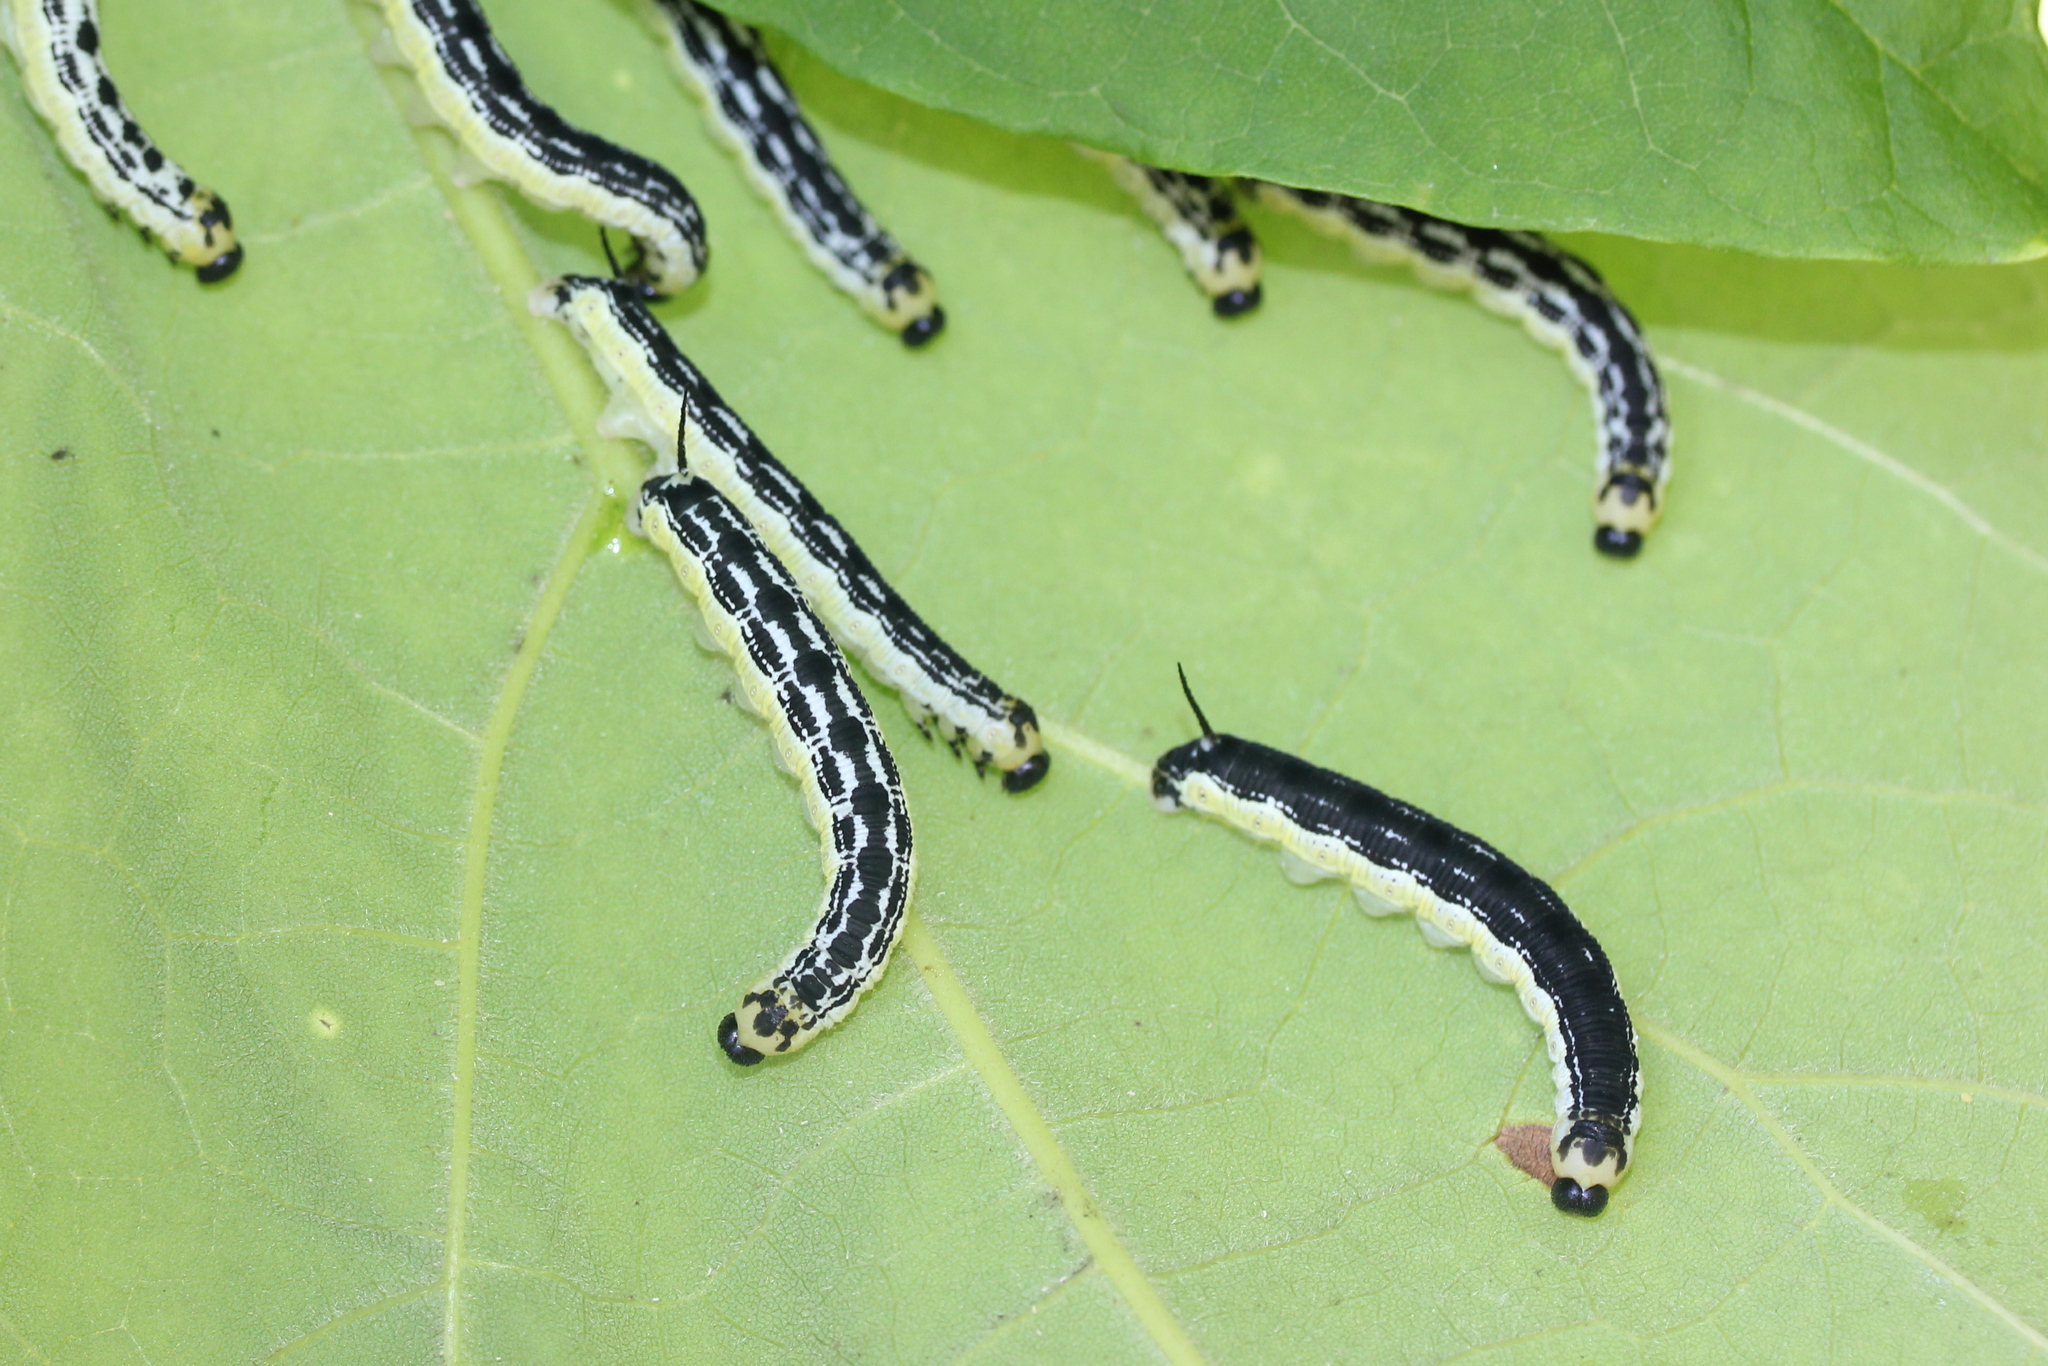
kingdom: Animalia
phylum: Arthropoda
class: Insecta
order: Lepidoptera
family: Sphingidae
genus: Ceratomia
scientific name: Ceratomia catalpae
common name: Catalpa hornworm
